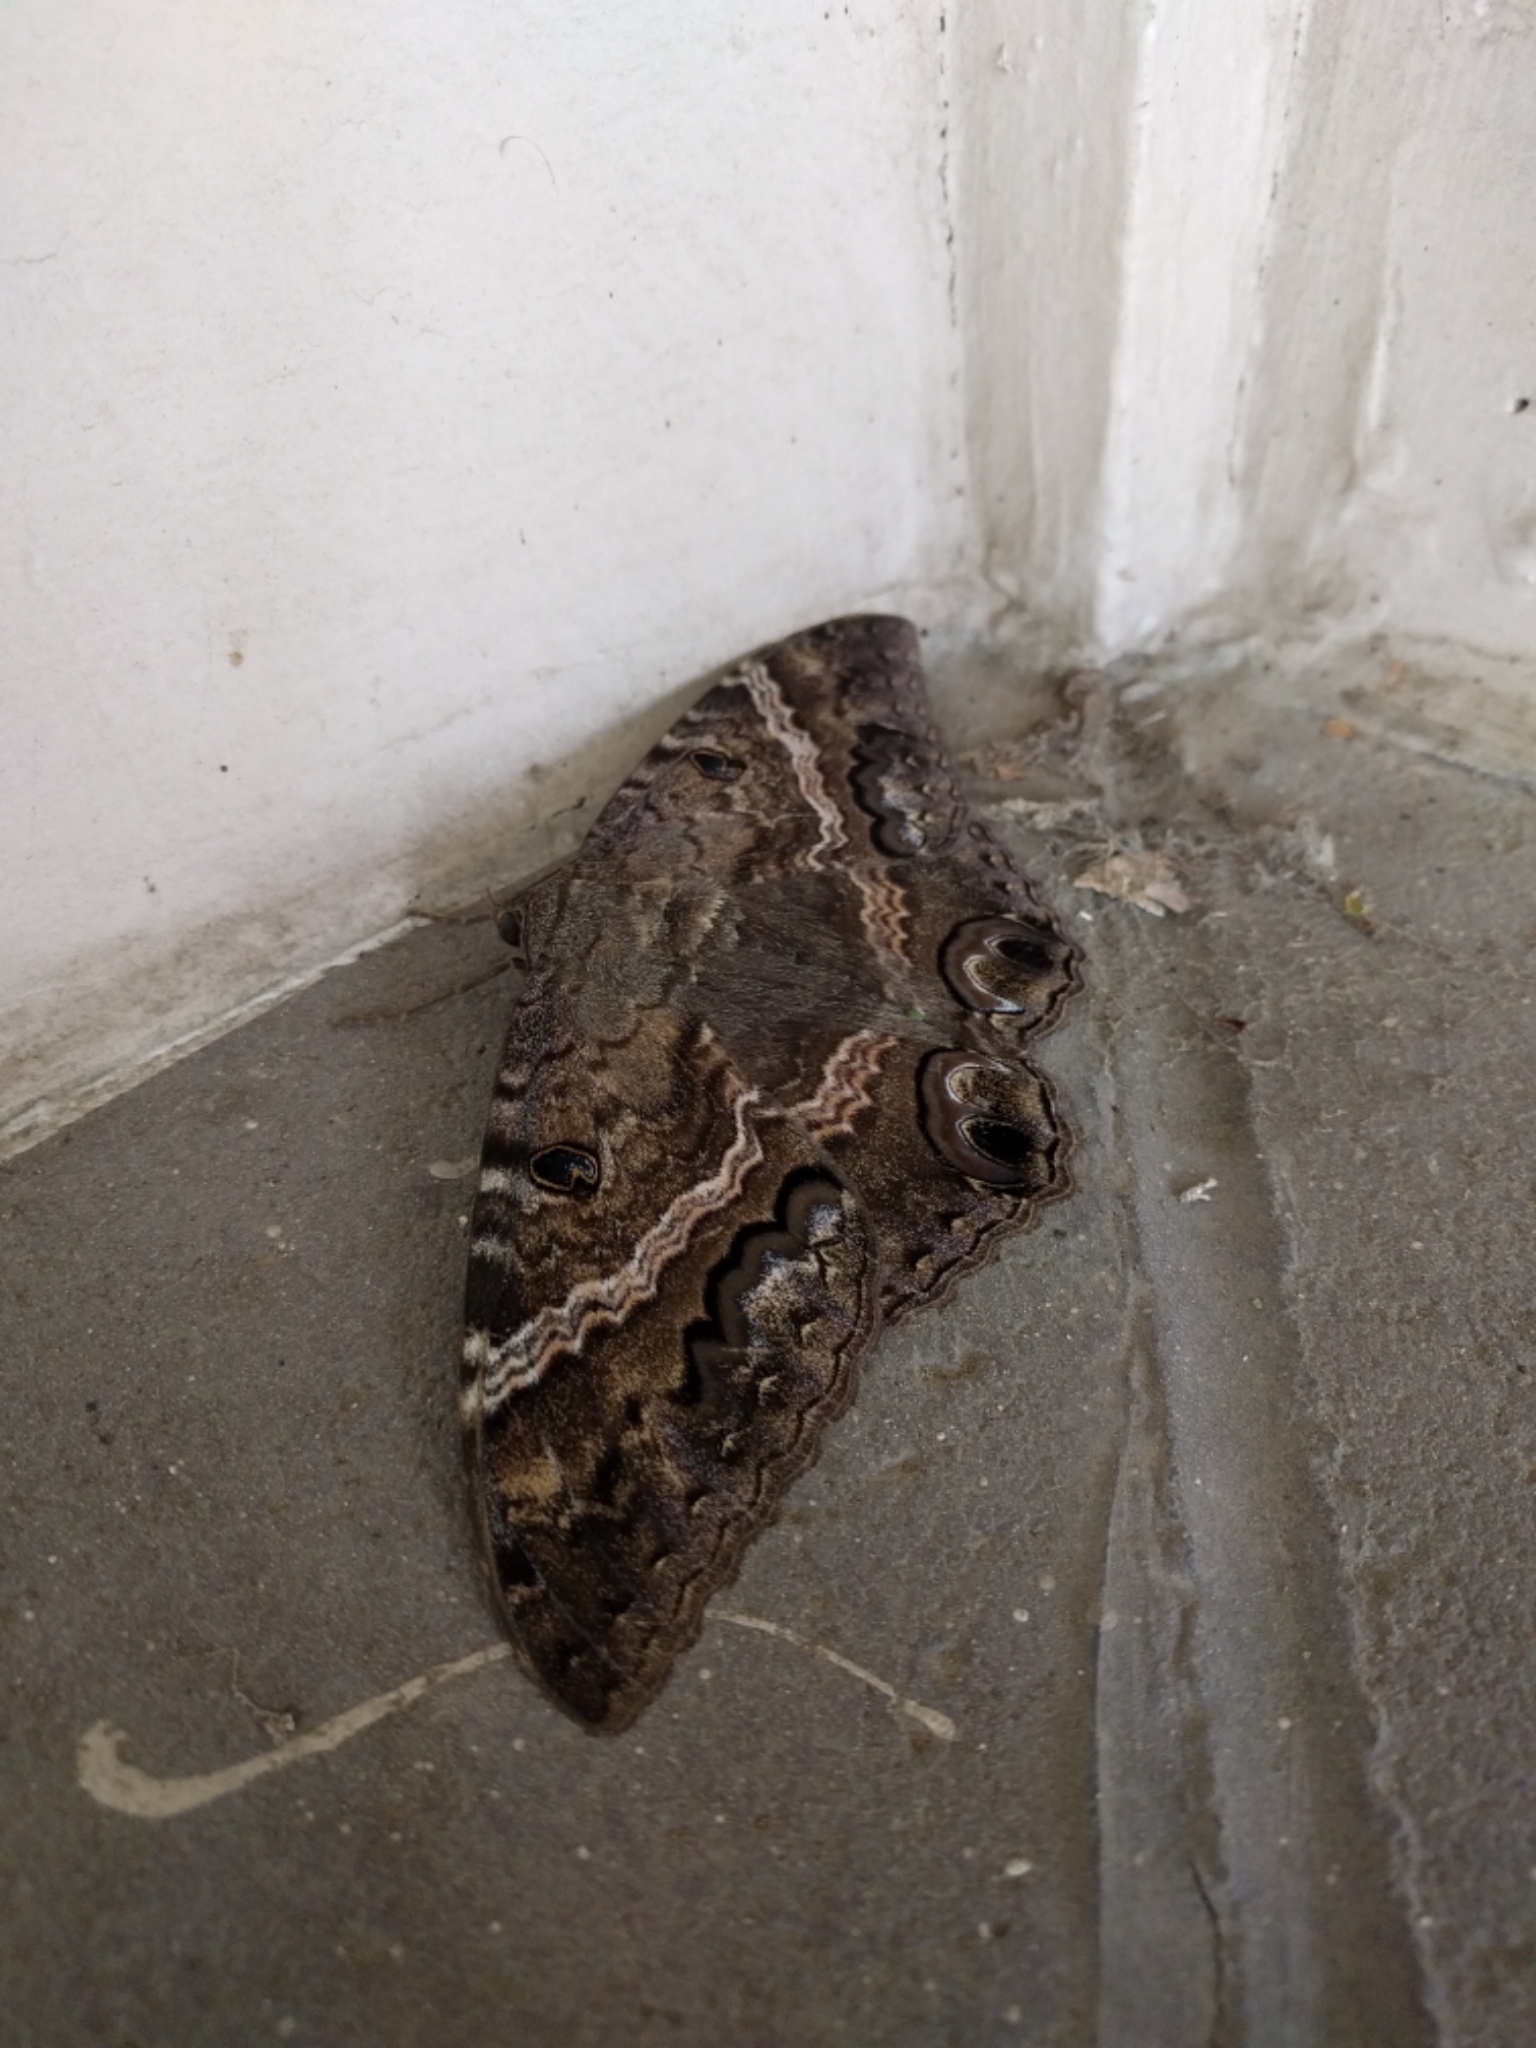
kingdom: Animalia
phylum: Arthropoda
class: Insecta
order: Lepidoptera
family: Erebidae
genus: Ascalapha
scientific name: Ascalapha odorata
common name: Black witch
